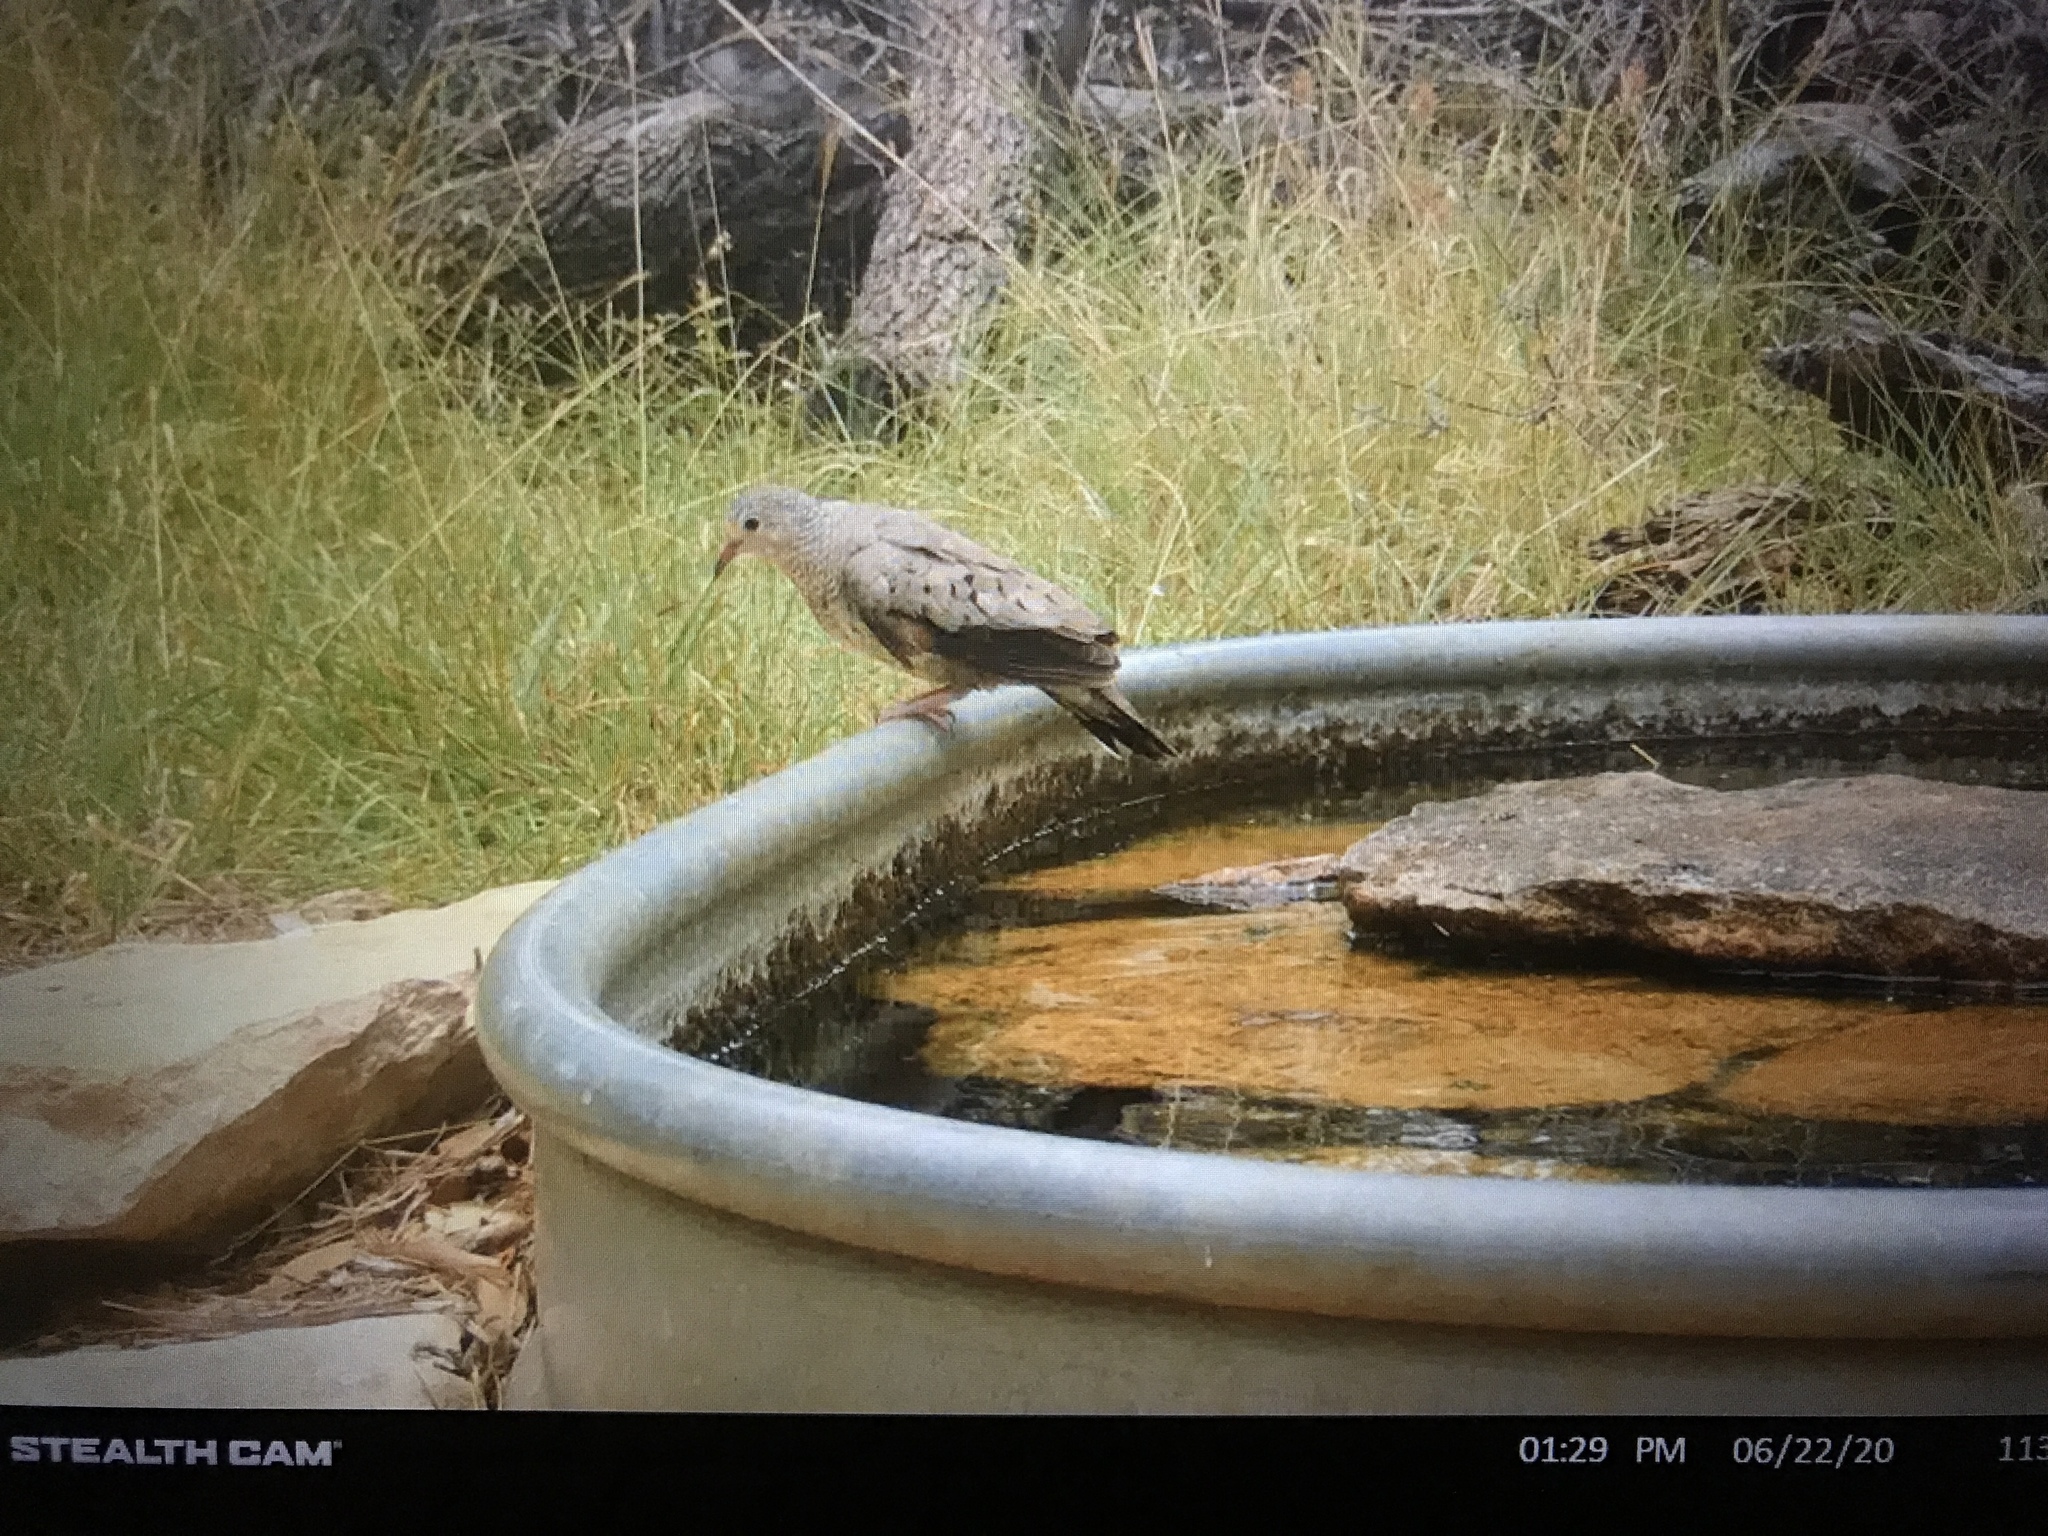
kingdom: Animalia
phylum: Chordata
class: Aves
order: Columbiformes
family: Columbidae
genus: Columbina
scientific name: Columbina passerina
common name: Common ground-dove
